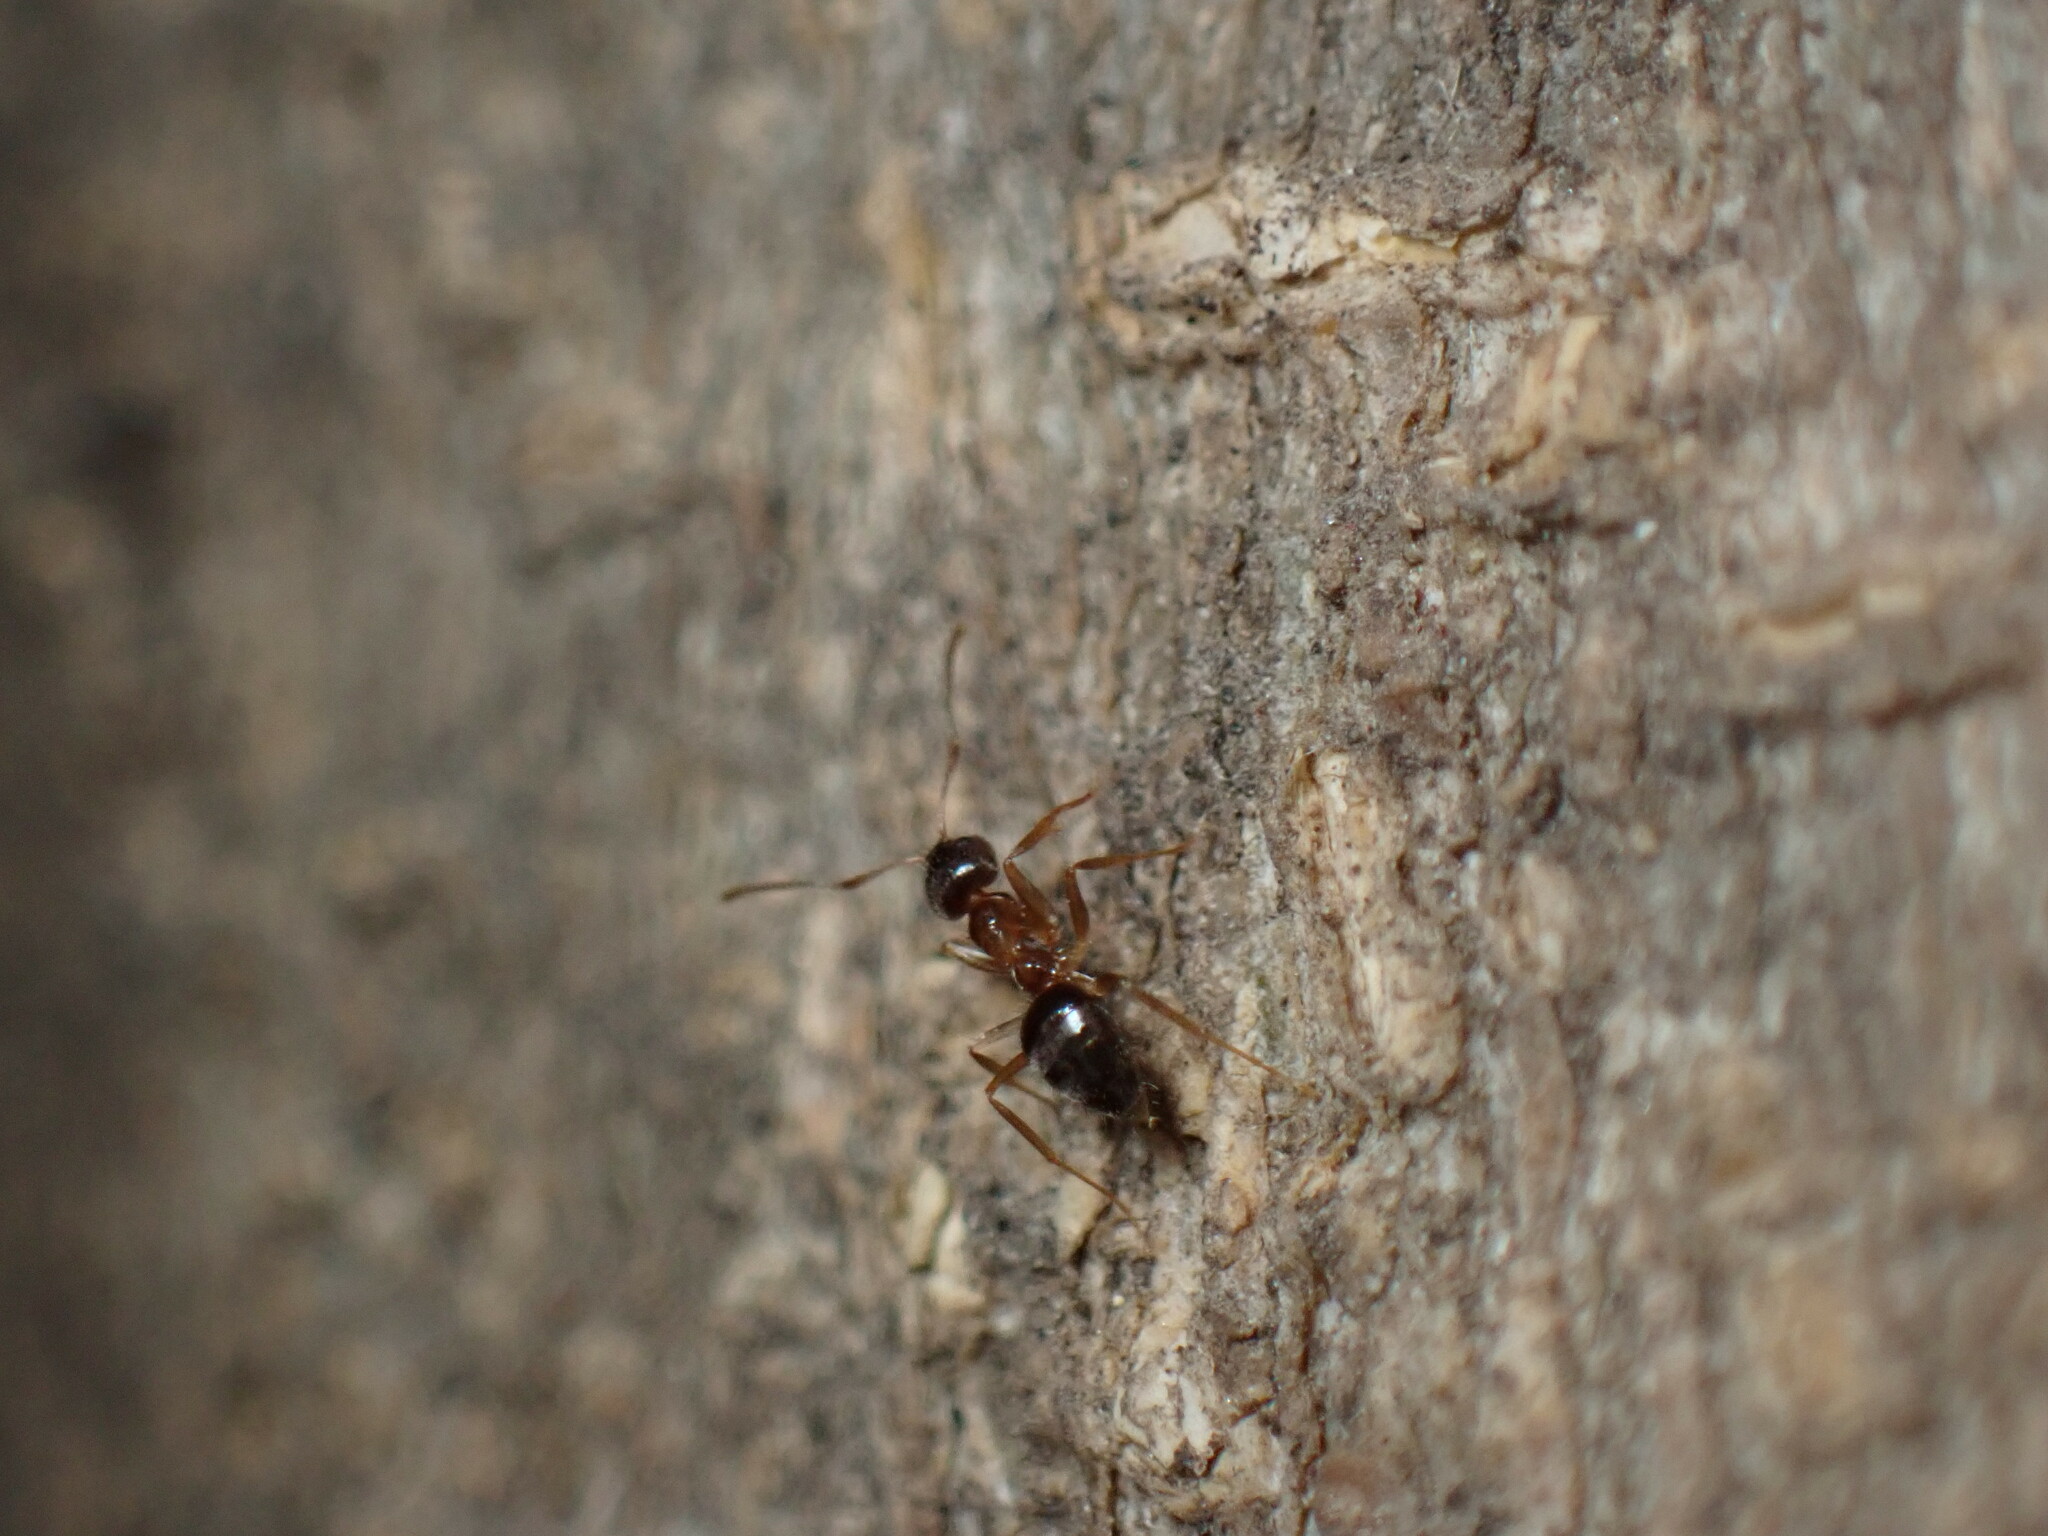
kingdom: Animalia
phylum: Arthropoda
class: Insecta
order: Hymenoptera
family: Formicidae
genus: Paratrechina
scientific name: Paratrechina jaegerskioeldi
